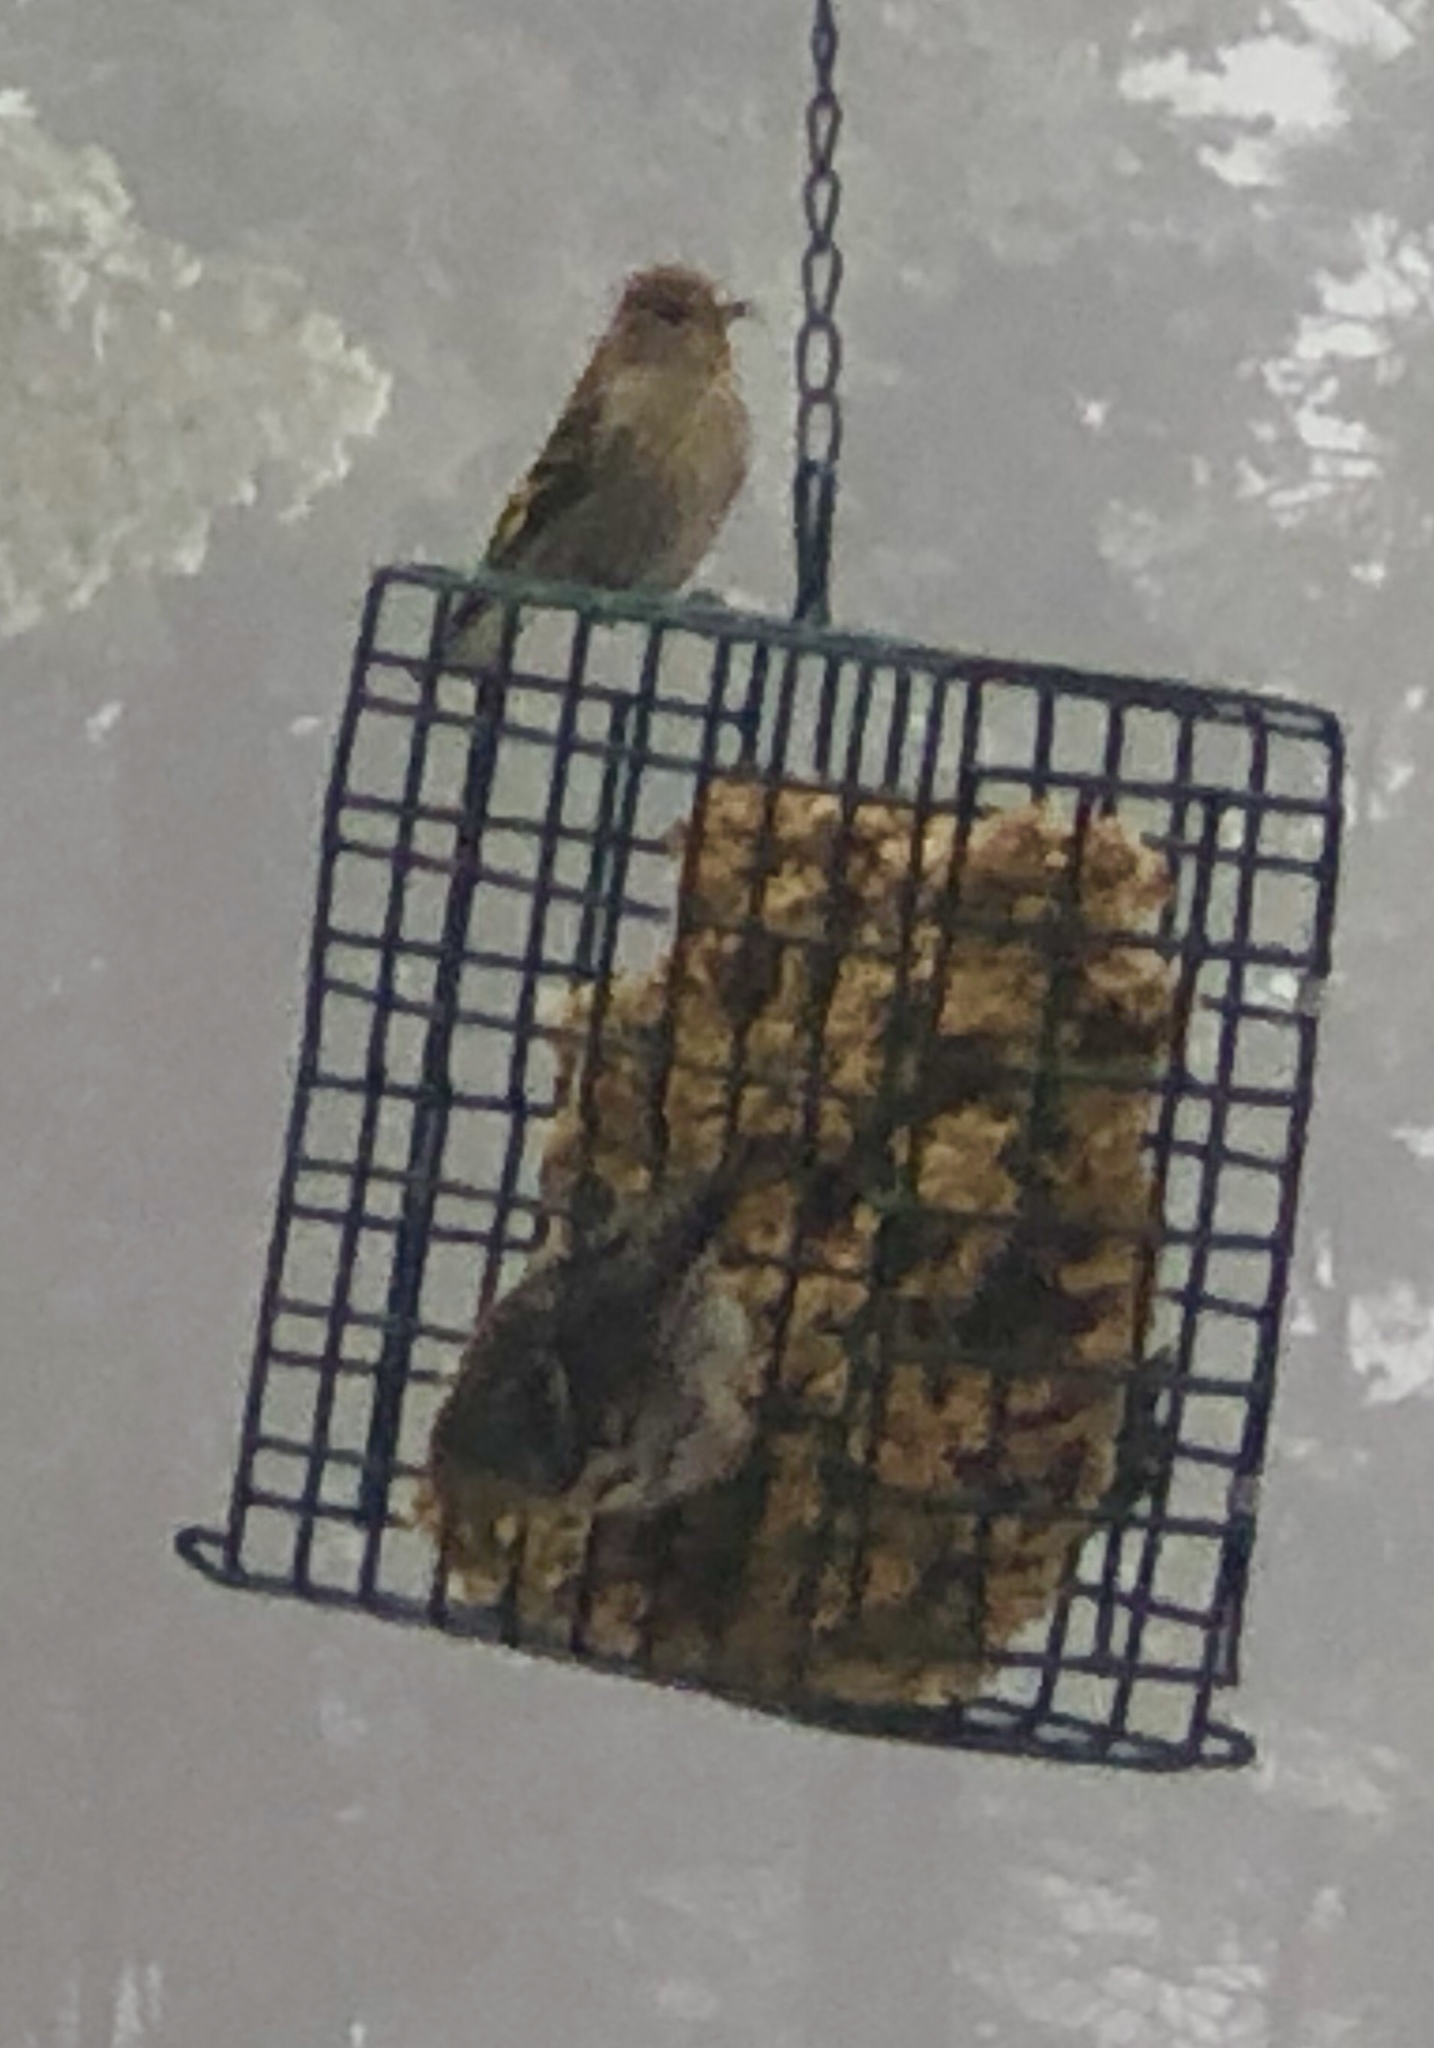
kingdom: Animalia
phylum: Chordata
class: Aves
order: Passeriformes
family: Fringillidae
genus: Spinus
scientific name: Spinus pinus
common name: Pine siskin
